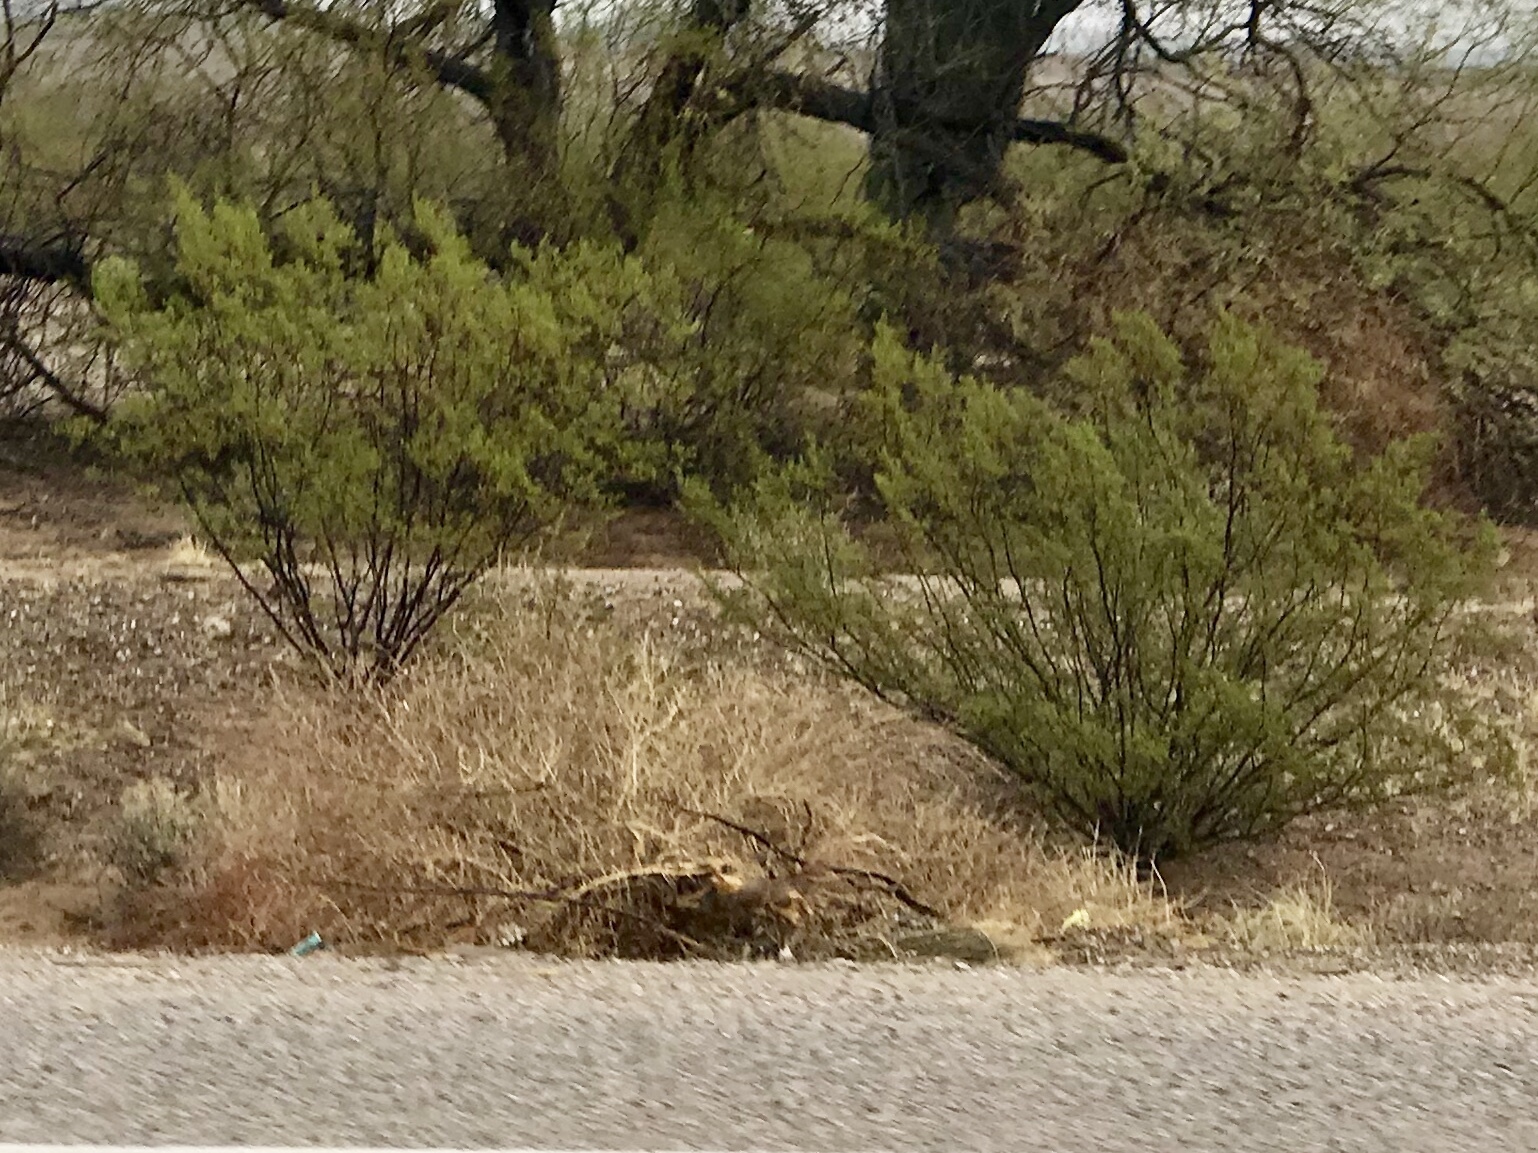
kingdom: Plantae
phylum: Tracheophyta
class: Magnoliopsida
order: Zygophyllales
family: Zygophyllaceae
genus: Larrea
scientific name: Larrea tridentata
